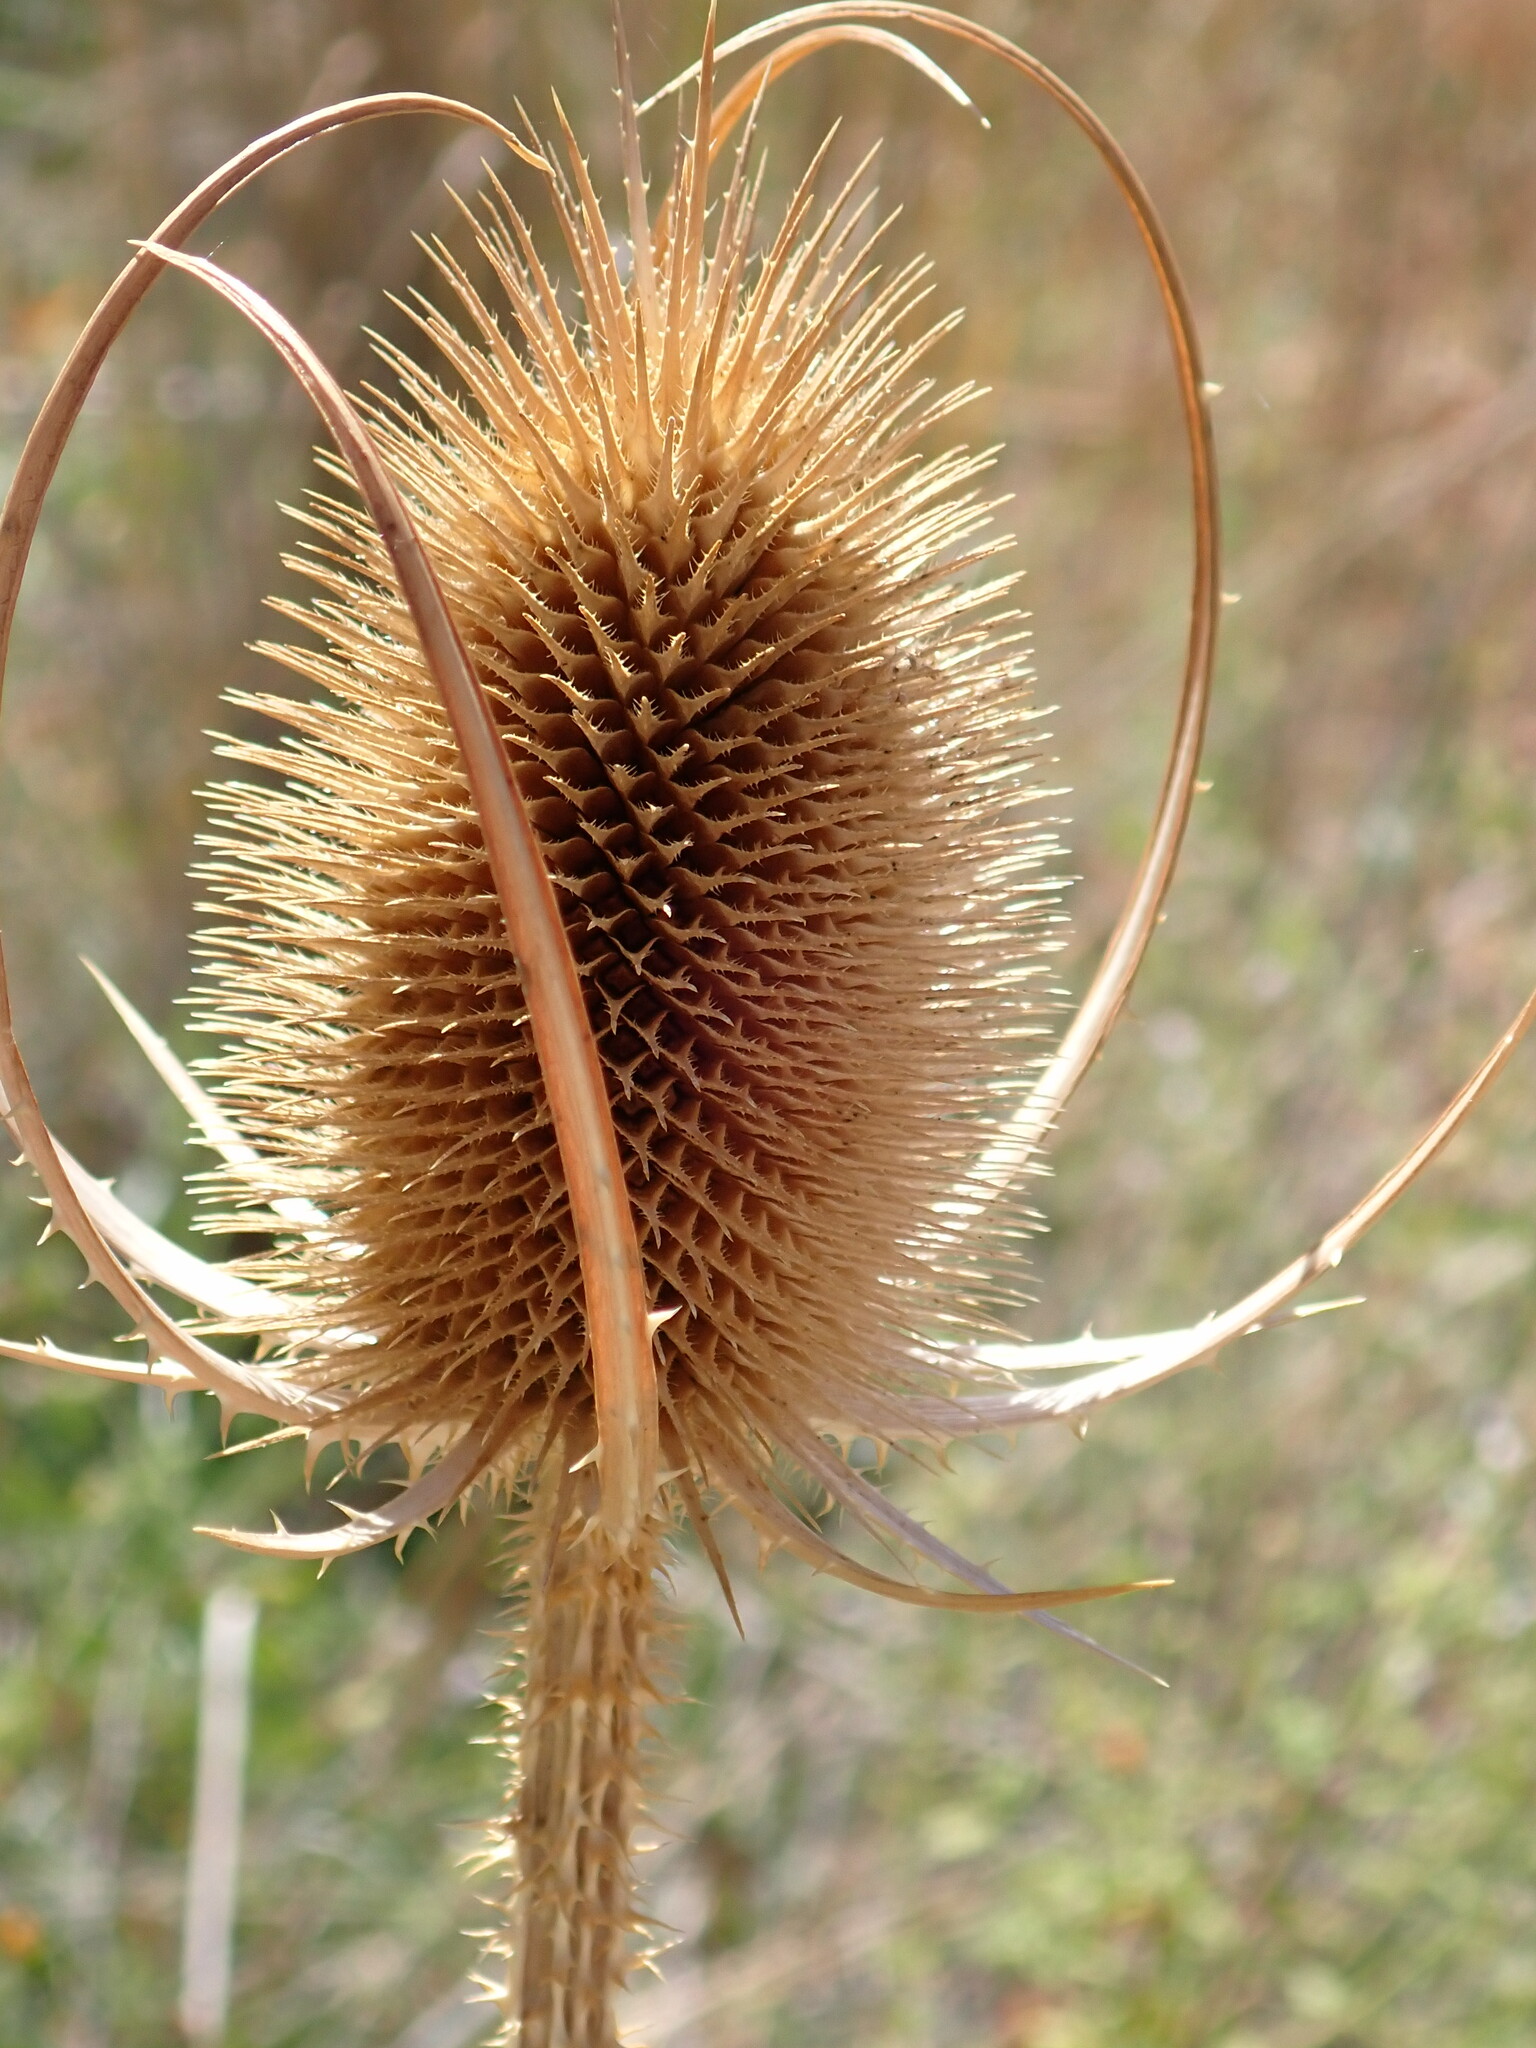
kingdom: Plantae
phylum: Tracheophyta
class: Magnoliopsida
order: Dipsacales
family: Caprifoliaceae
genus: Dipsacus
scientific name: Dipsacus fullonum
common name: Teasel
